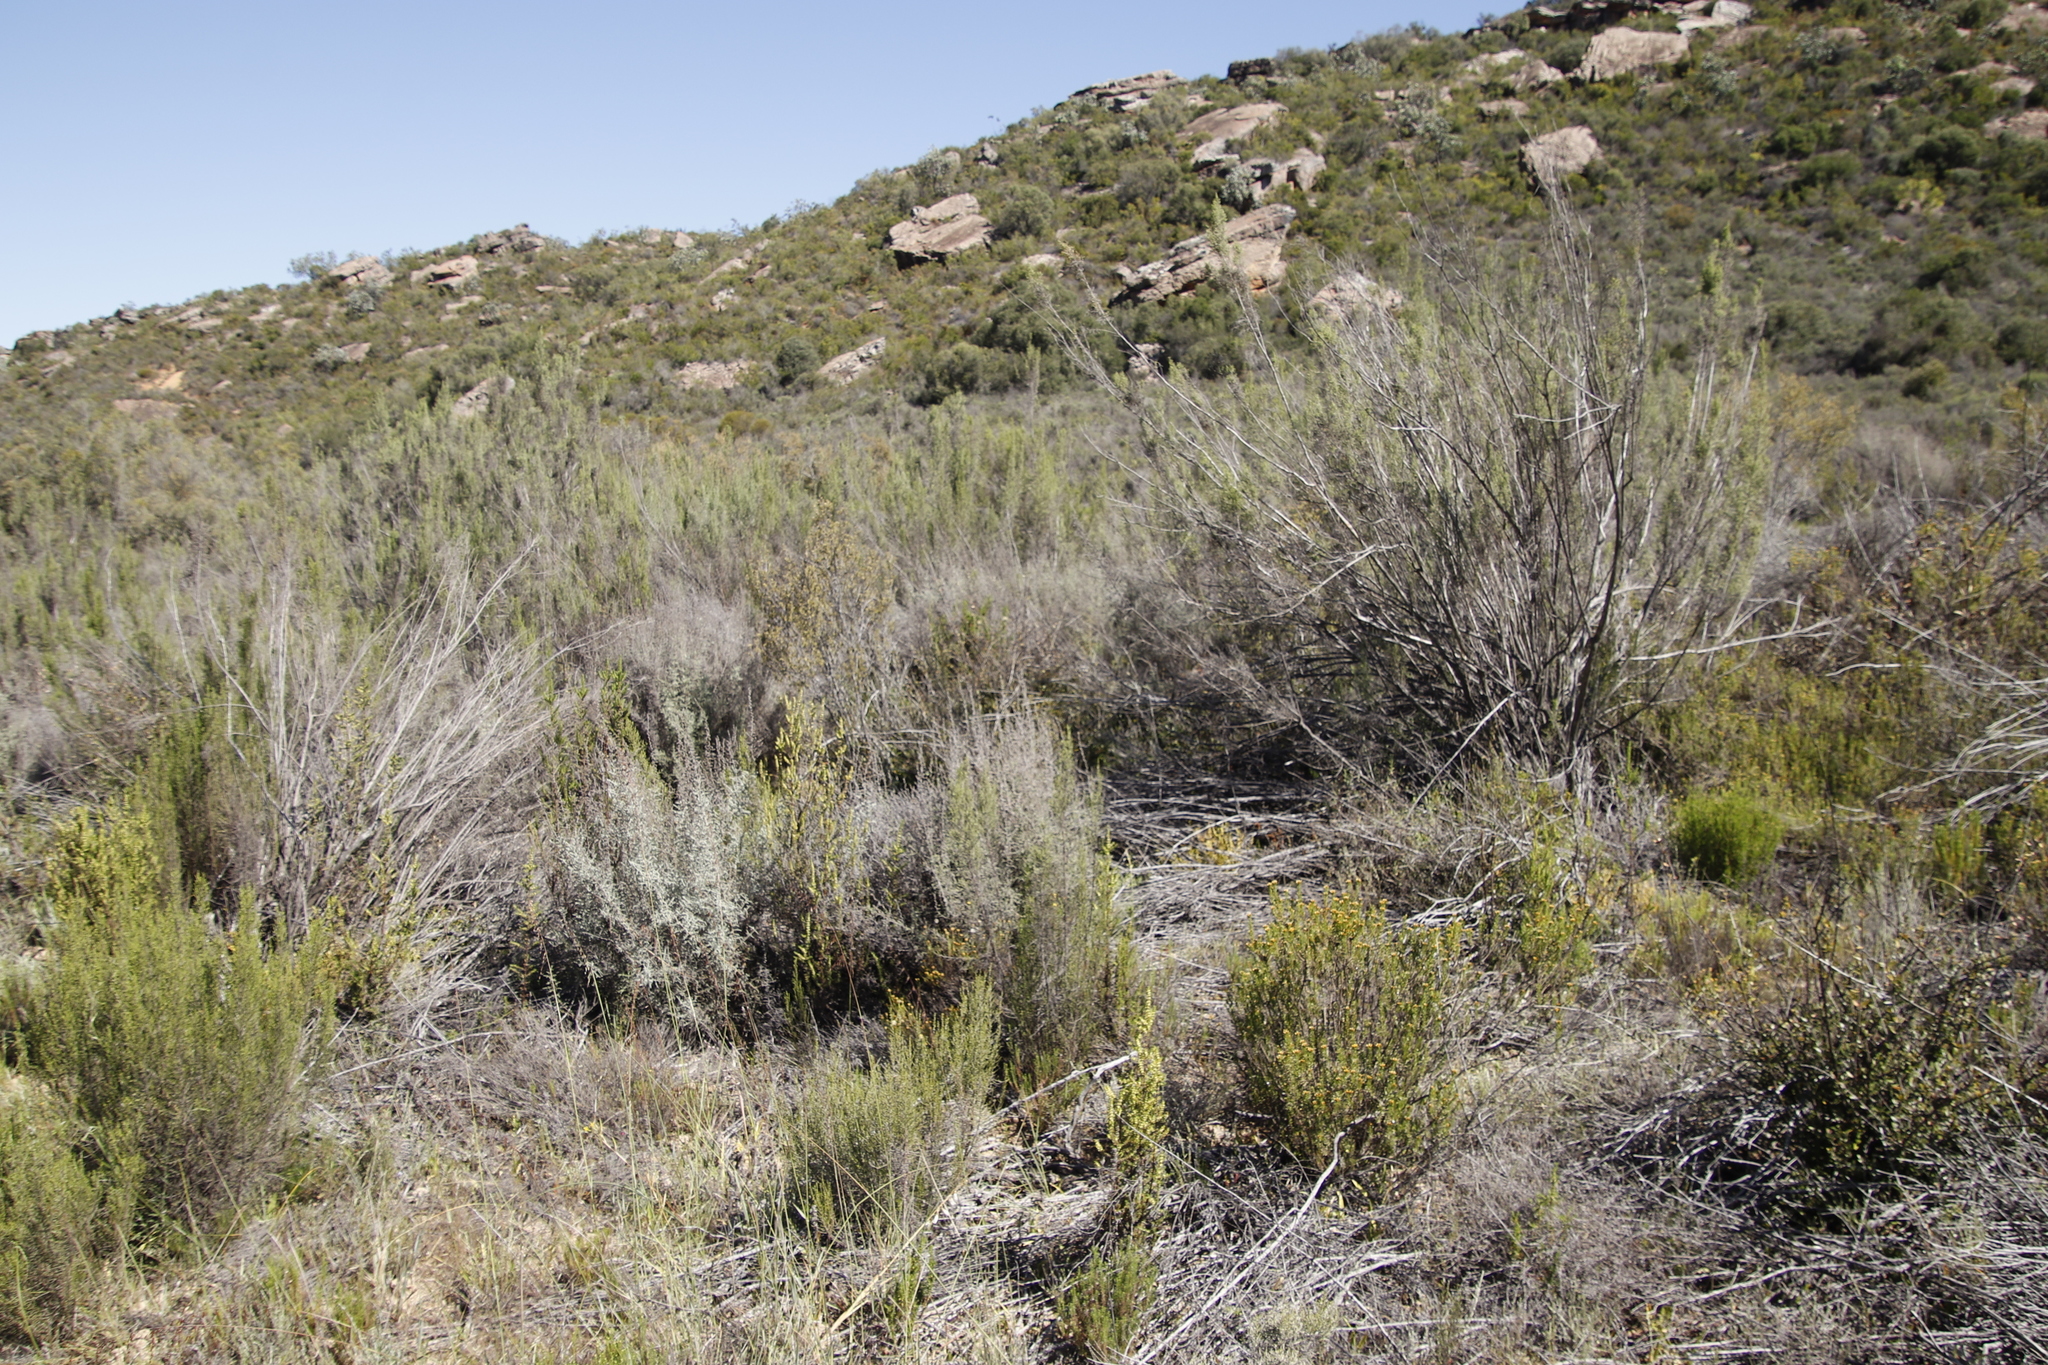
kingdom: Plantae
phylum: Tracheophyta
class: Magnoliopsida
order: Asterales
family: Asteraceae
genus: Dicerothamnus
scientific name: Dicerothamnus rhinocerotis
